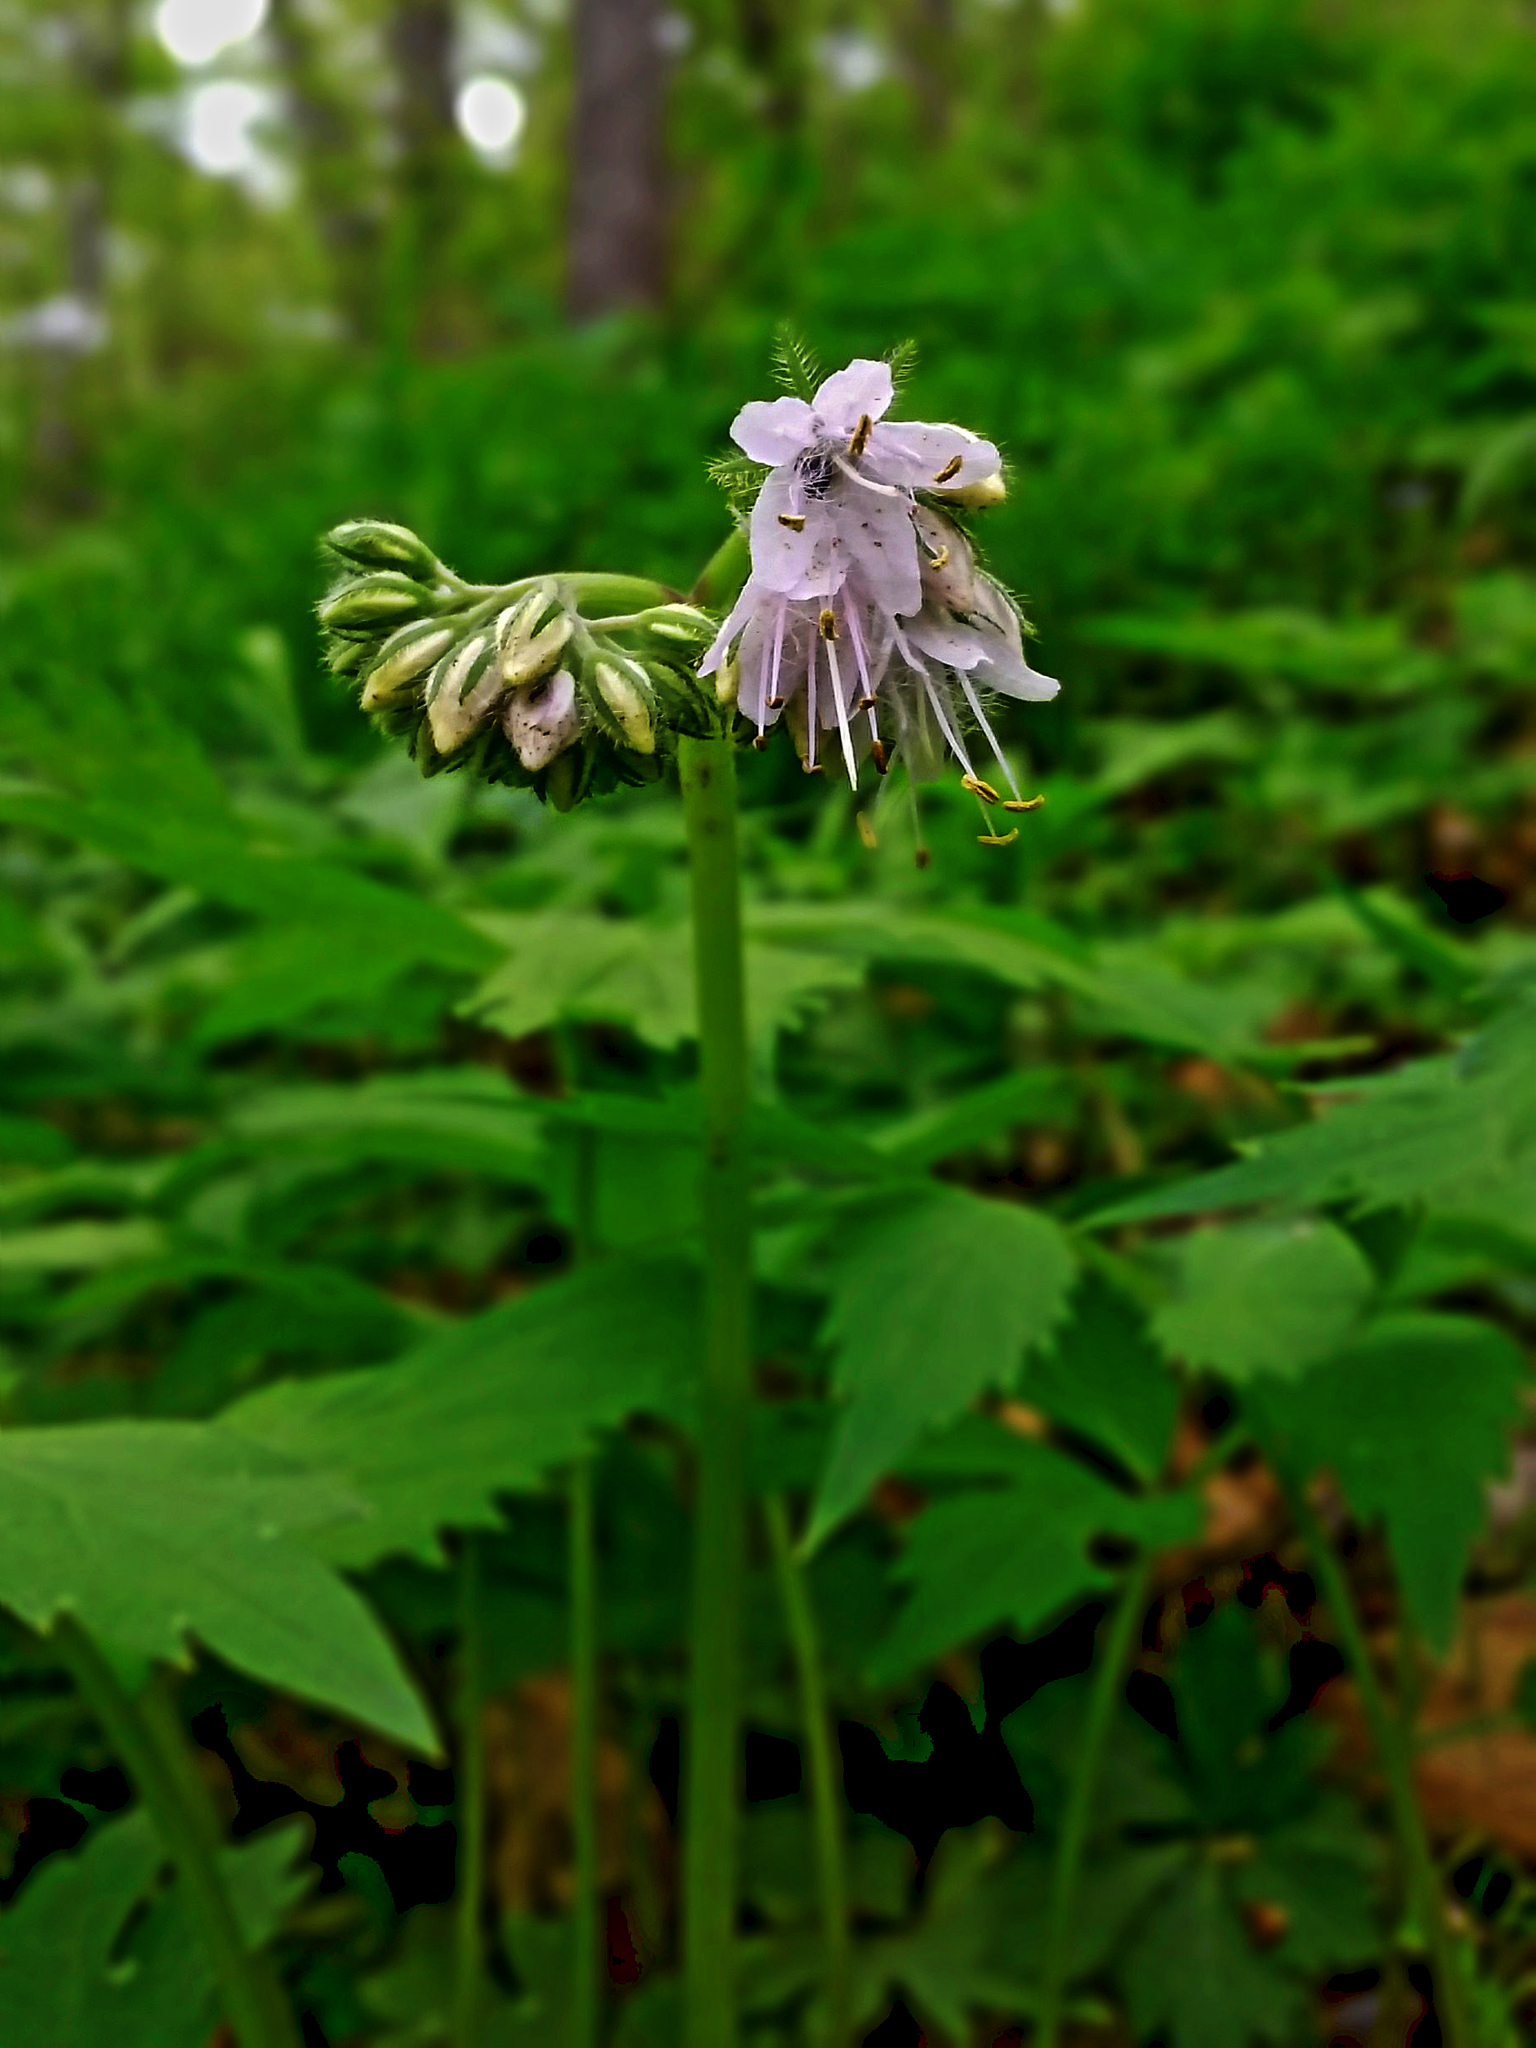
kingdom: Plantae
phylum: Tracheophyta
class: Magnoliopsida
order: Boraginales
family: Hydrophyllaceae
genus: Hydrophyllum
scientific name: Hydrophyllum virginianum
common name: Virginia waterleaf
